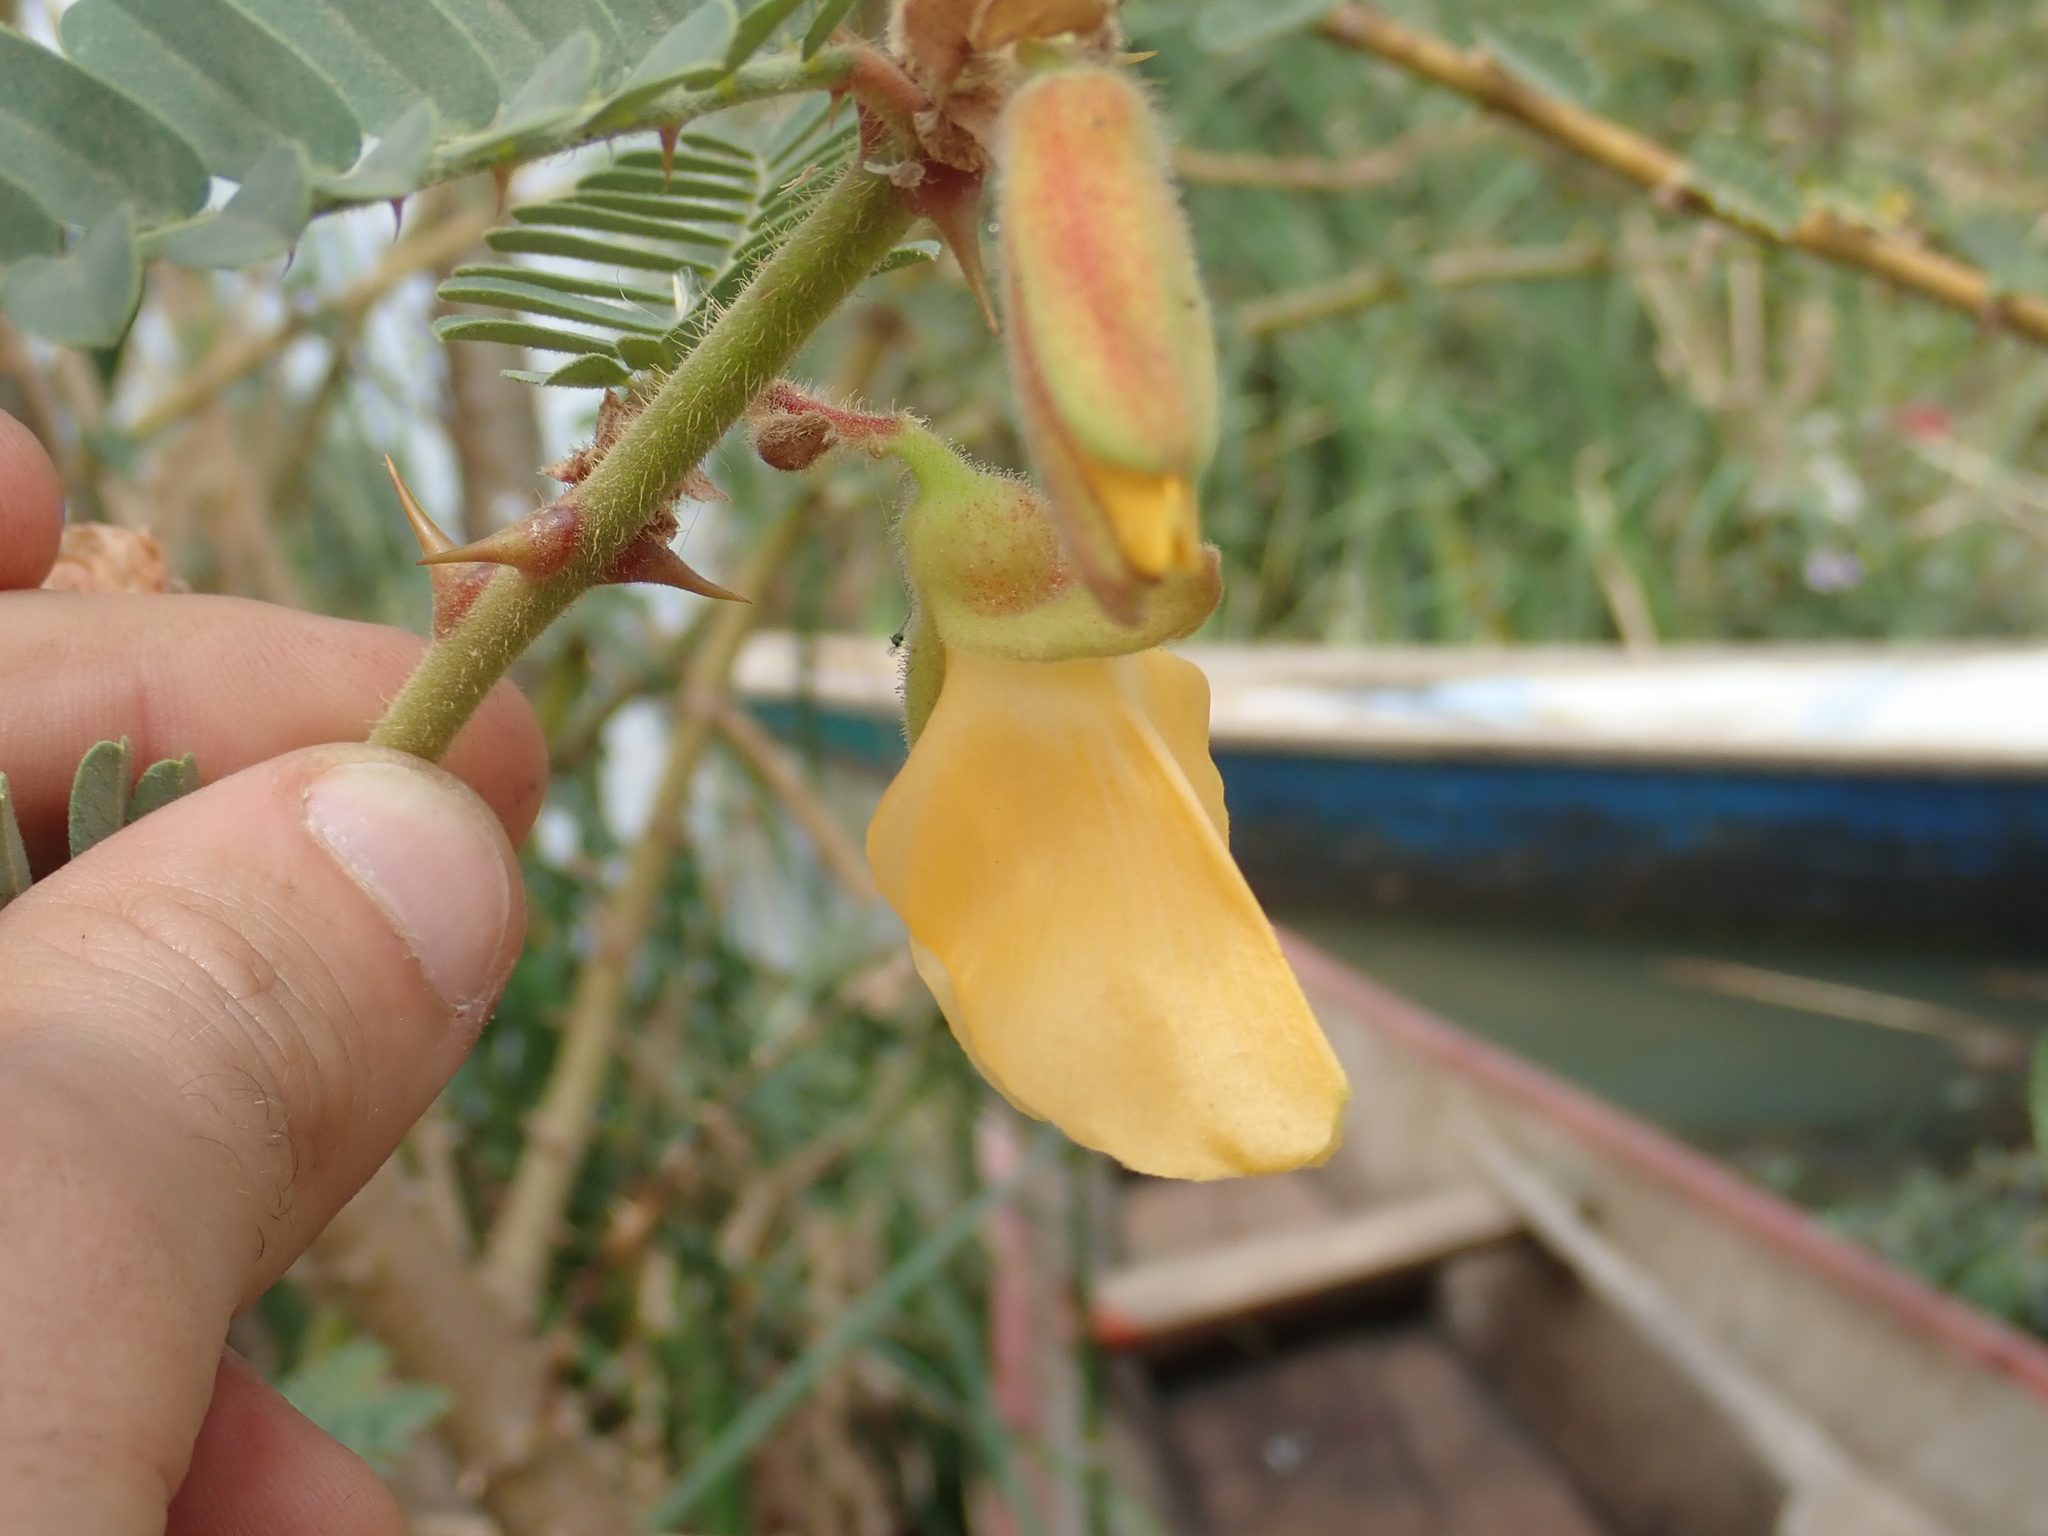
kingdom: Plantae
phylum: Tracheophyta
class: Magnoliopsida
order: Fabales
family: Fabaceae
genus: Aeschynomene
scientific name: Aeschynomene elaphroxylon
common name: Ambatch
